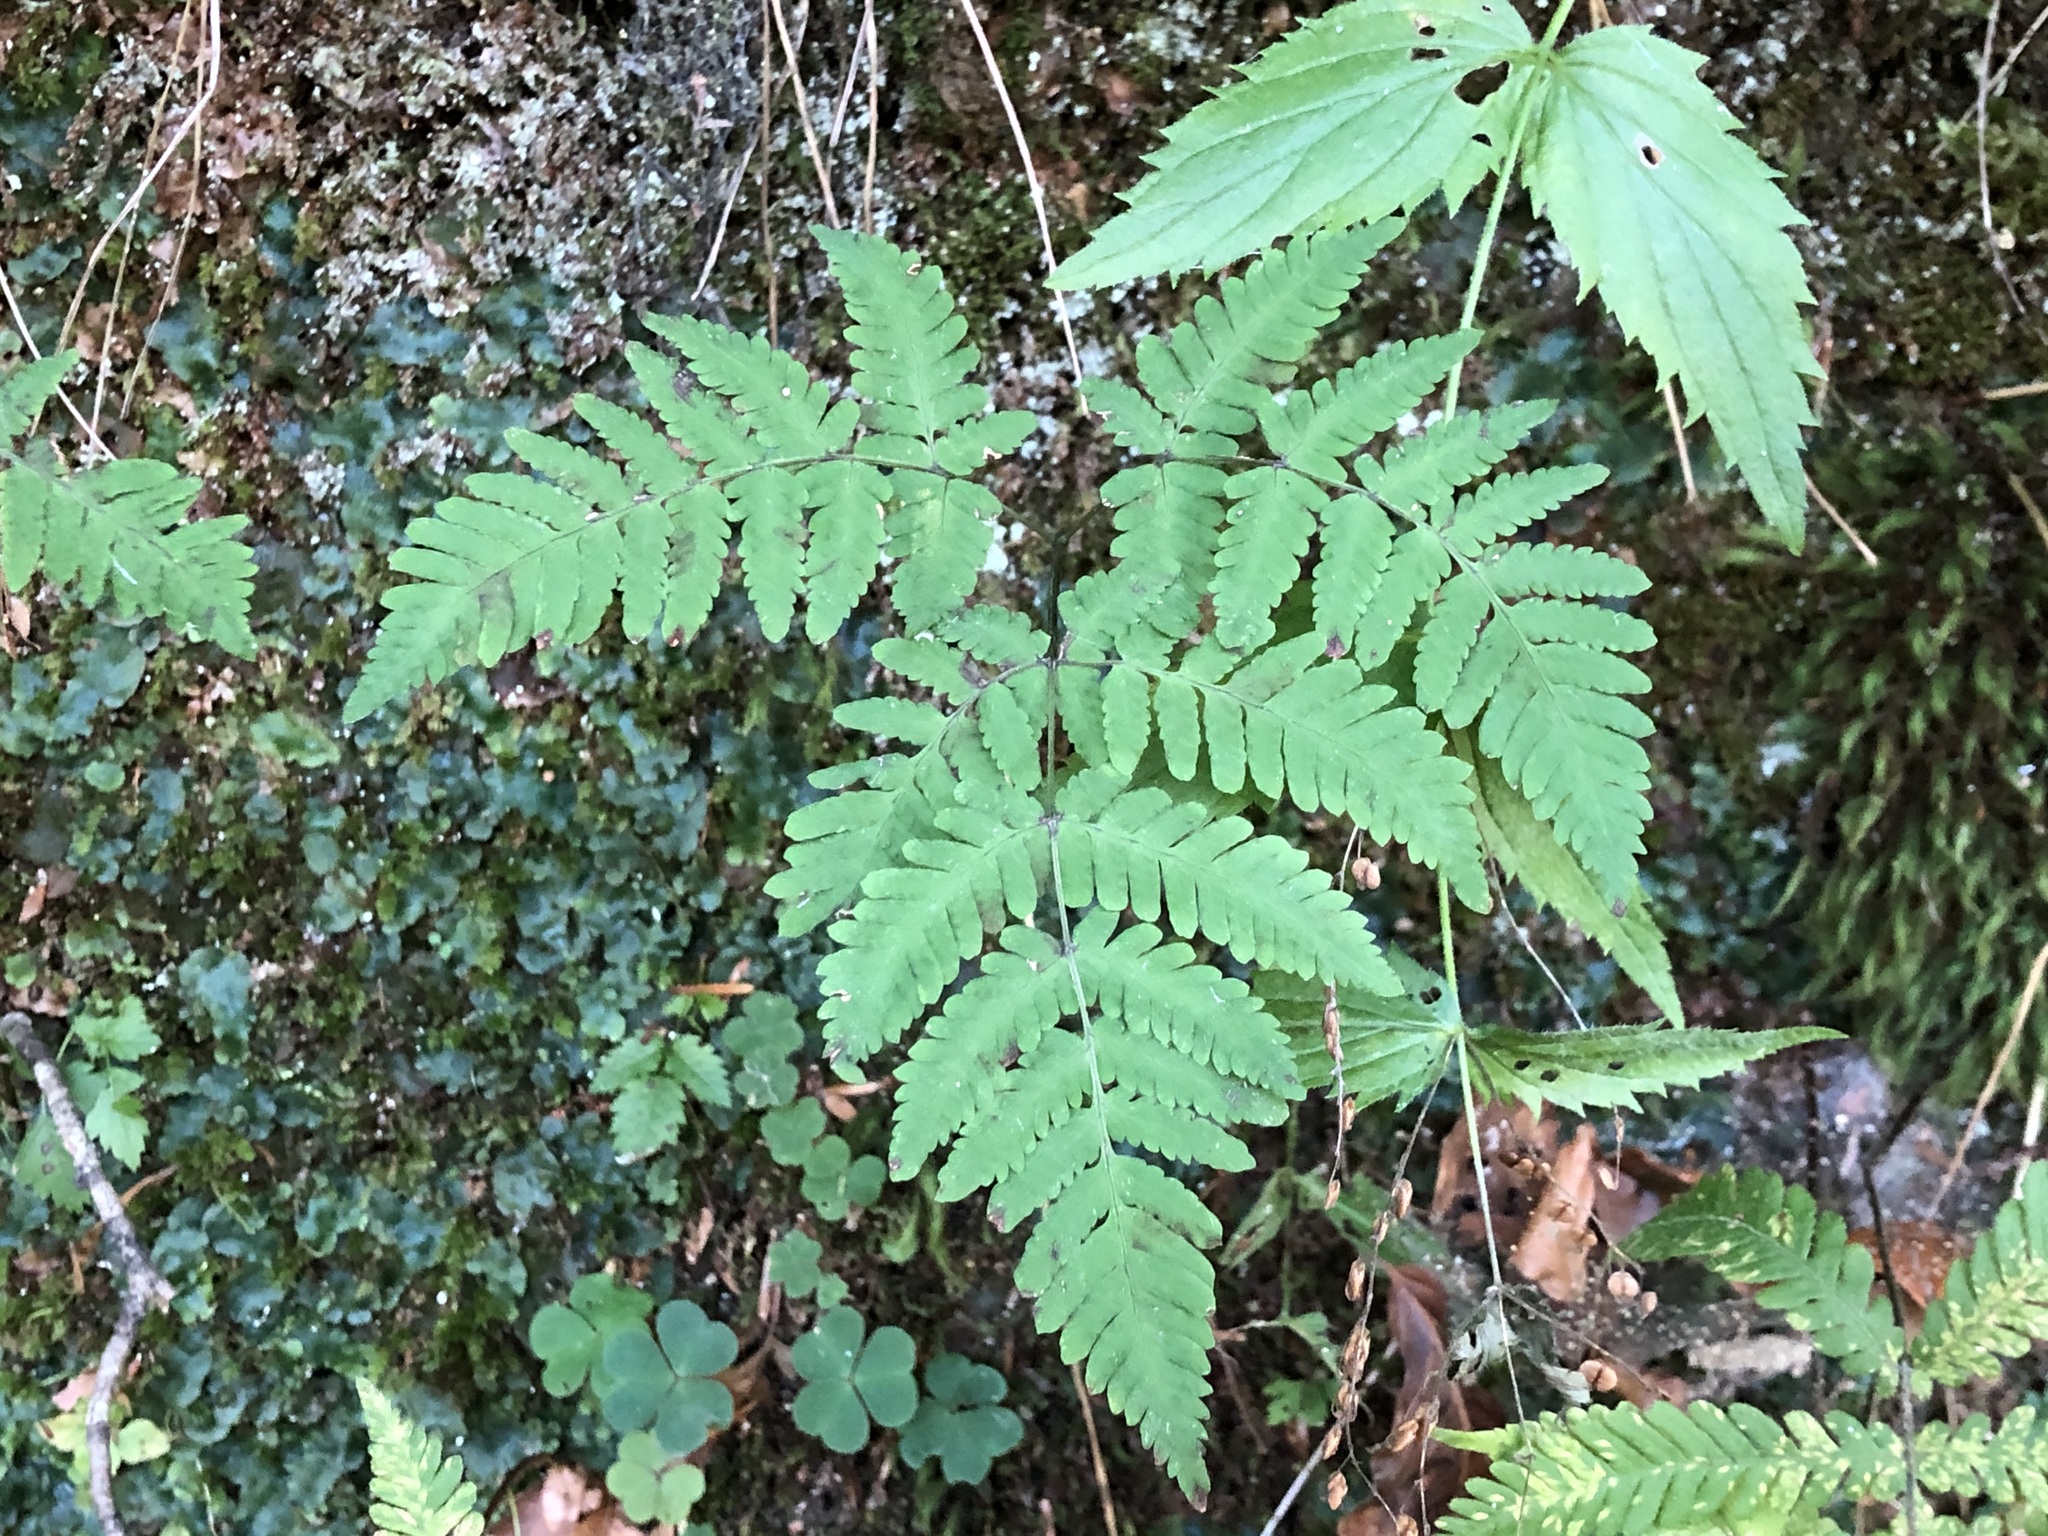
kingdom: Plantae
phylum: Tracheophyta
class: Polypodiopsida
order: Polypodiales
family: Cystopteridaceae
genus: Gymnocarpium
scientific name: Gymnocarpium dryopteris
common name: Oak fern
